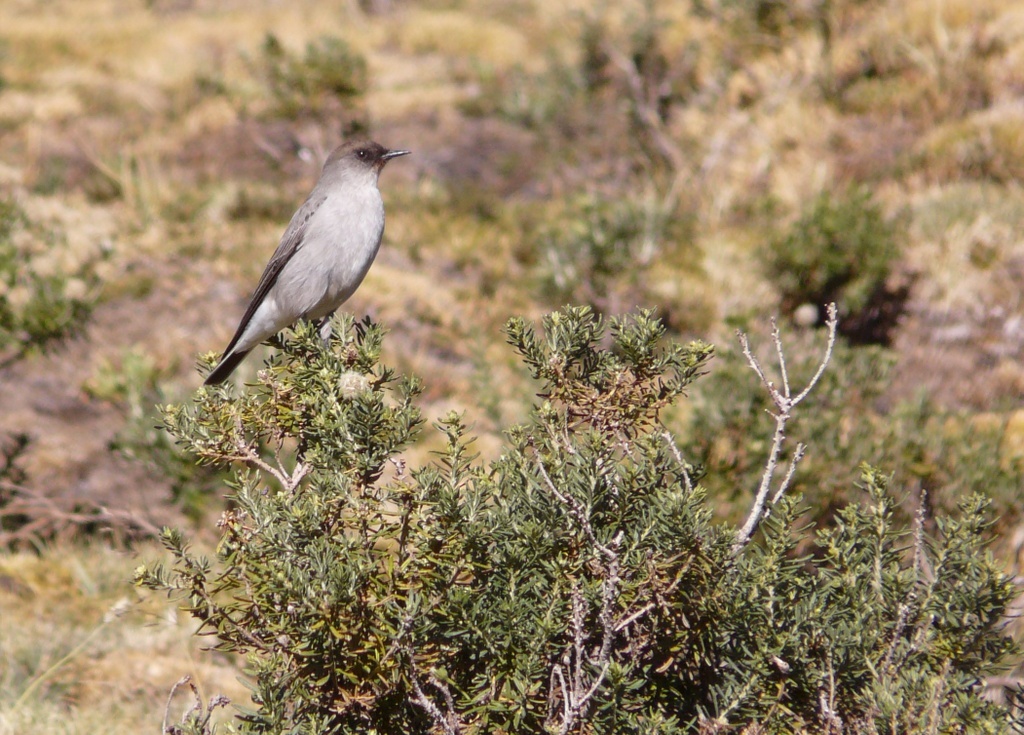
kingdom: Animalia
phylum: Chordata
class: Aves
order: Passeriformes
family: Tyrannidae
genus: Muscisaxicola
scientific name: Muscisaxicola maclovianus
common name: Dark-faced ground tyrant
